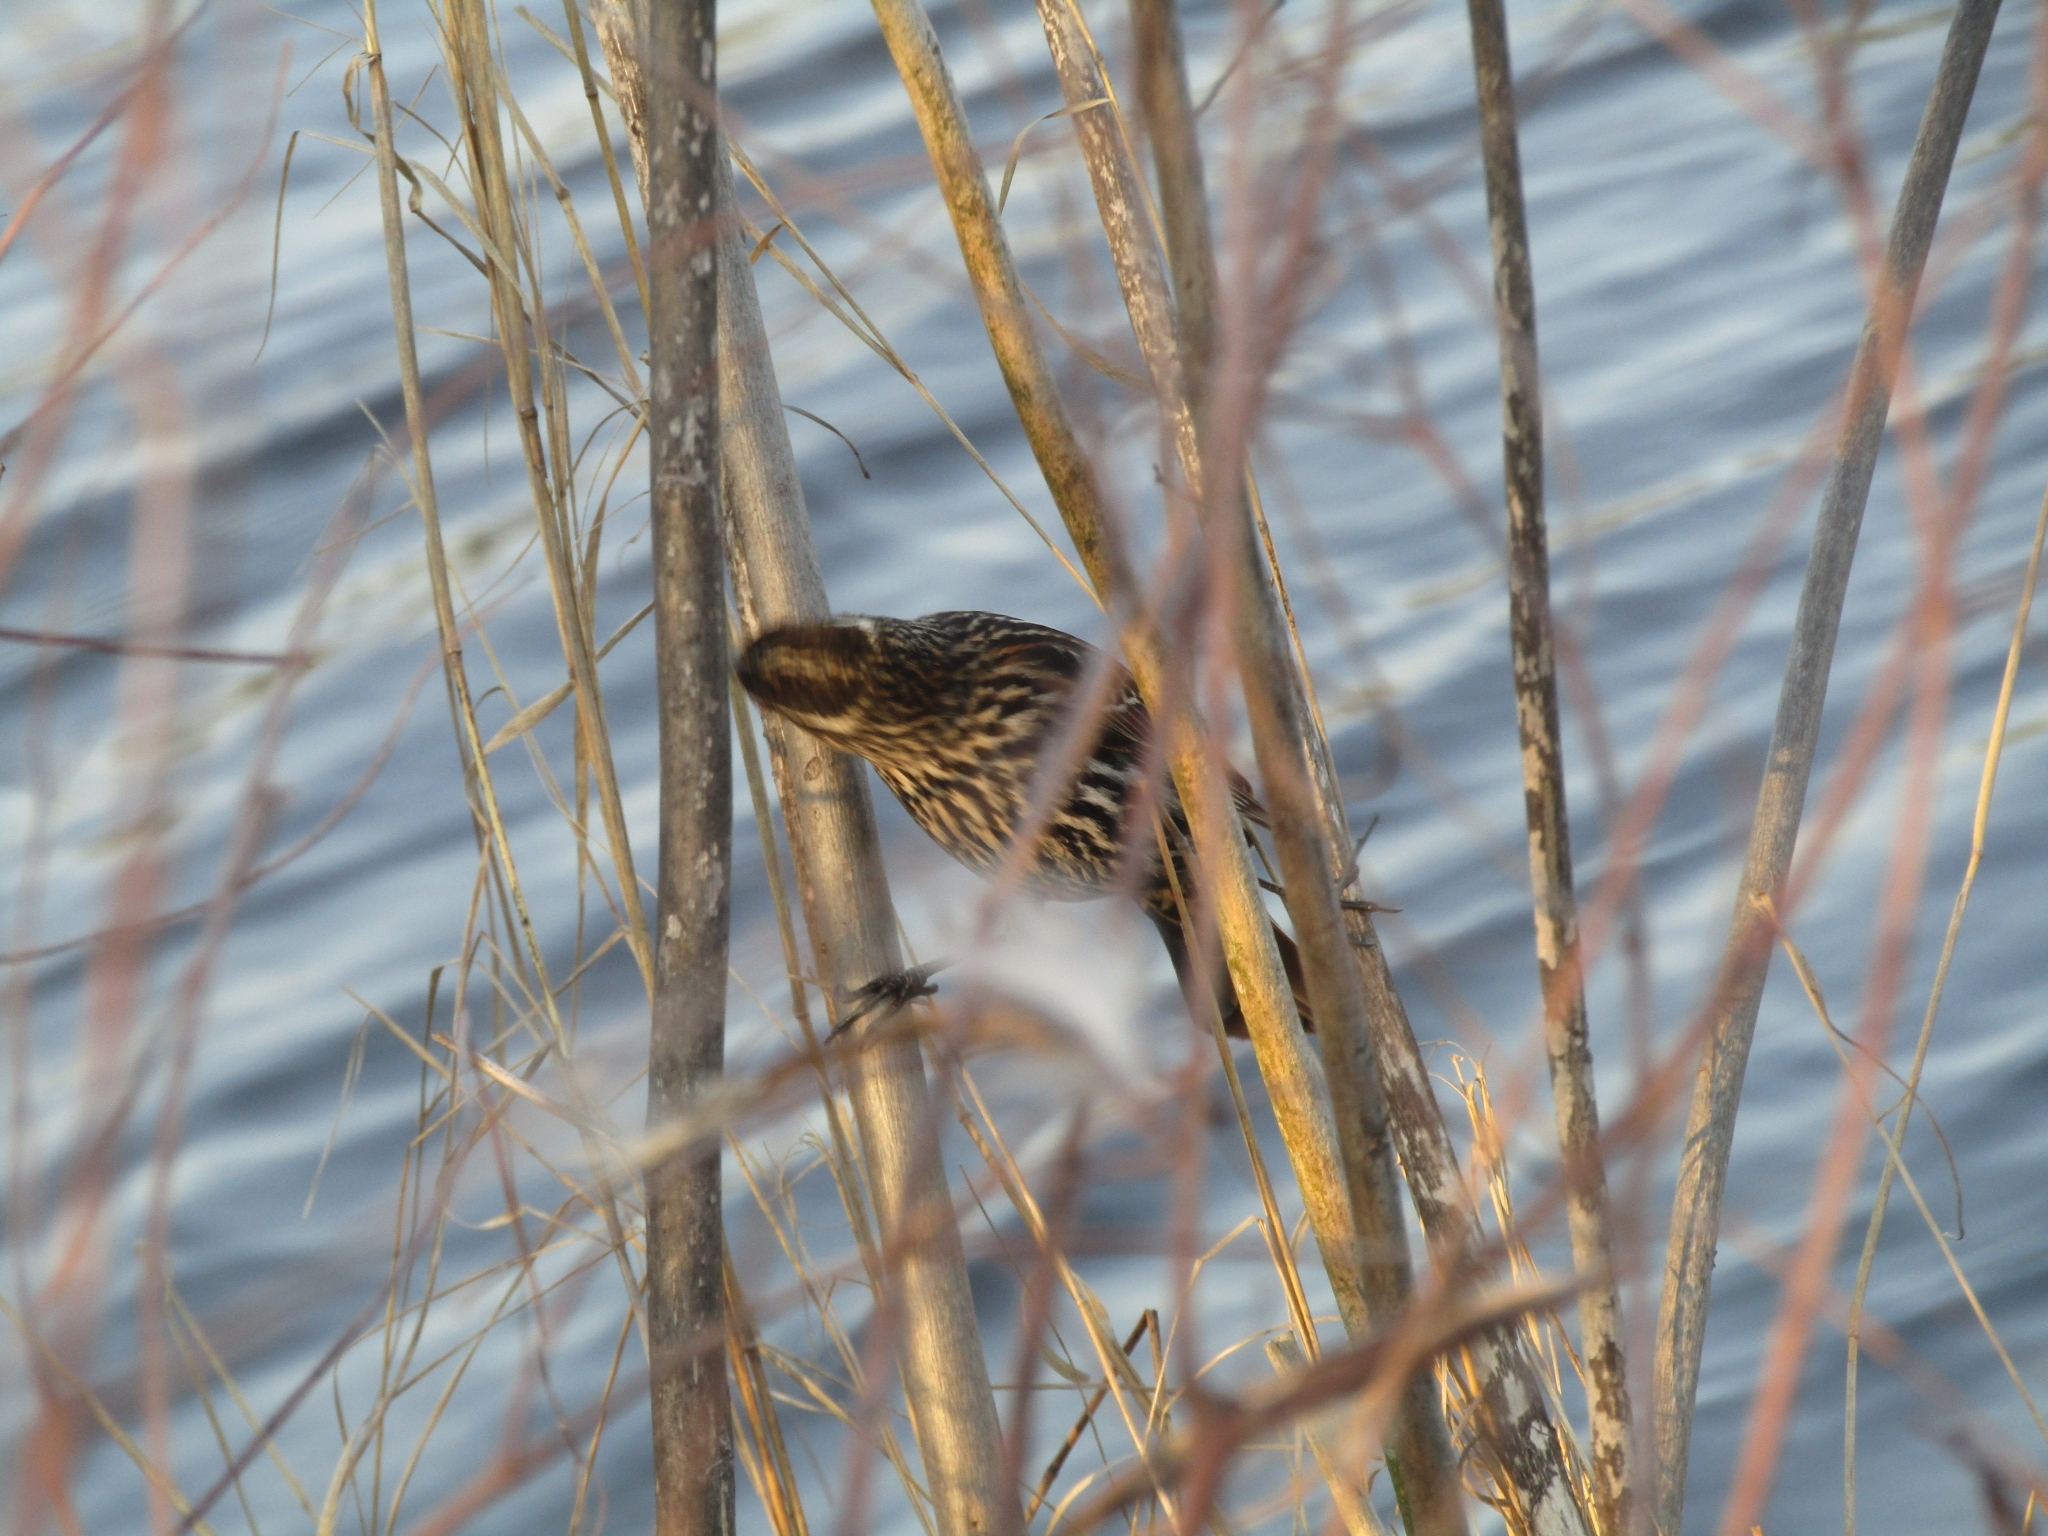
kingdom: Animalia
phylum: Chordata
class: Aves
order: Passeriformes
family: Icteridae
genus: Agelaius
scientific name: Agelaius phoeniceus
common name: Red-winged blackbird
